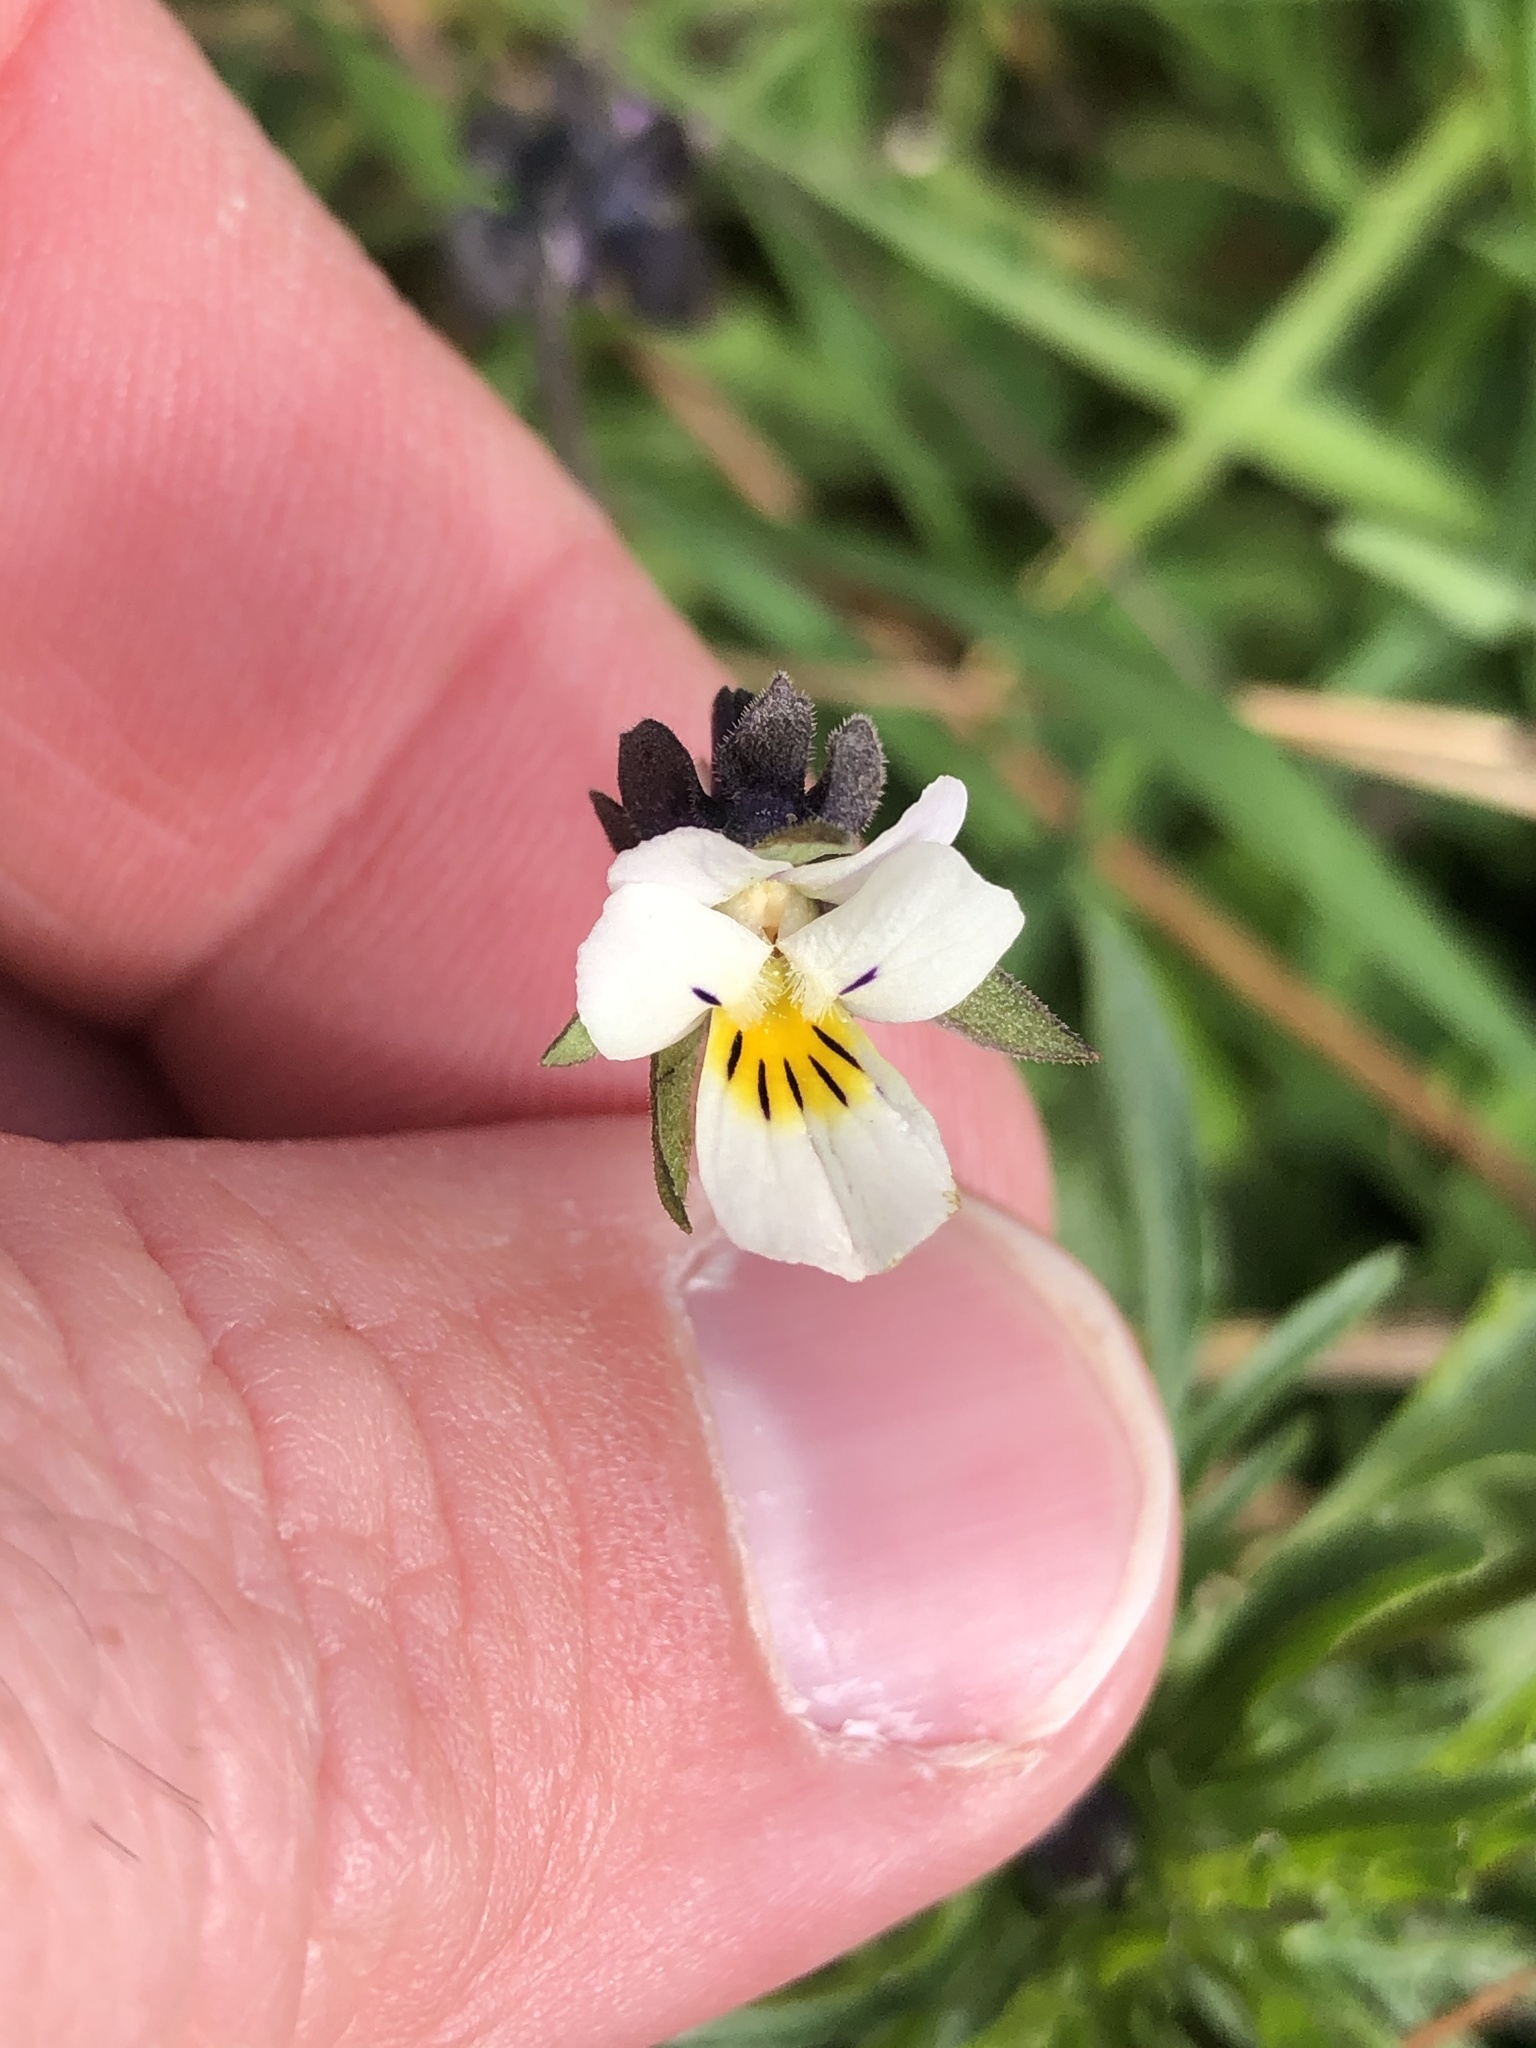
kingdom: Plantae
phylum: Tracheophyta
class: Magnoliopsida
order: Malpighiales
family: Violaceae
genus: Viola
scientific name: Viola arvensis
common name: Field pansy
